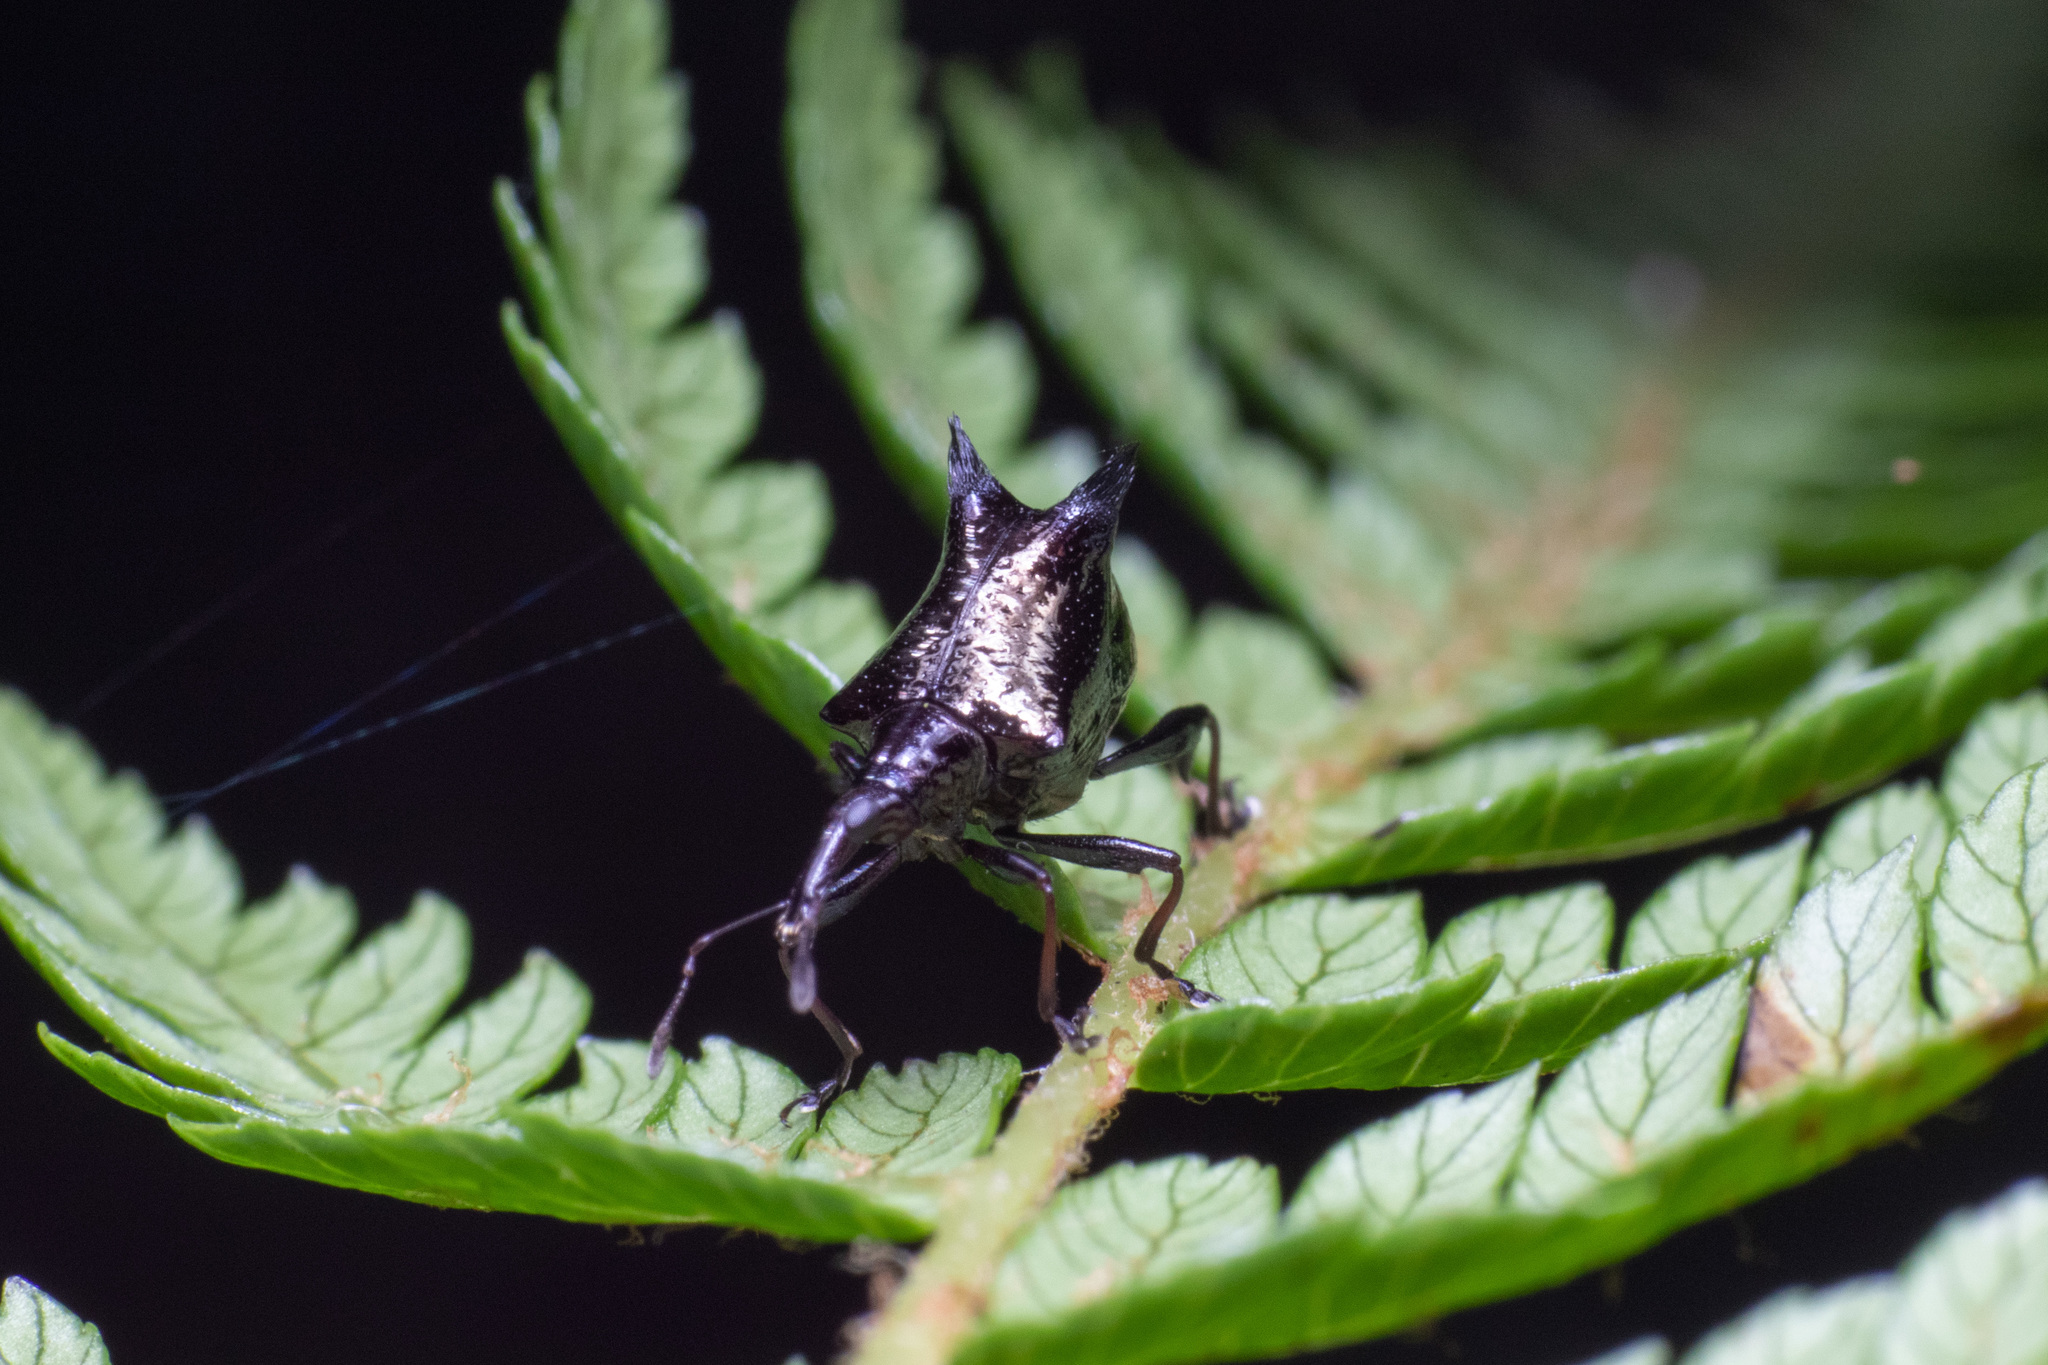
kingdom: Animalia
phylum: Arthropoda
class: Insecta
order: Coleoptera
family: Curculionidae
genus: Scolopterus
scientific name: Scolopterus penicillatus
